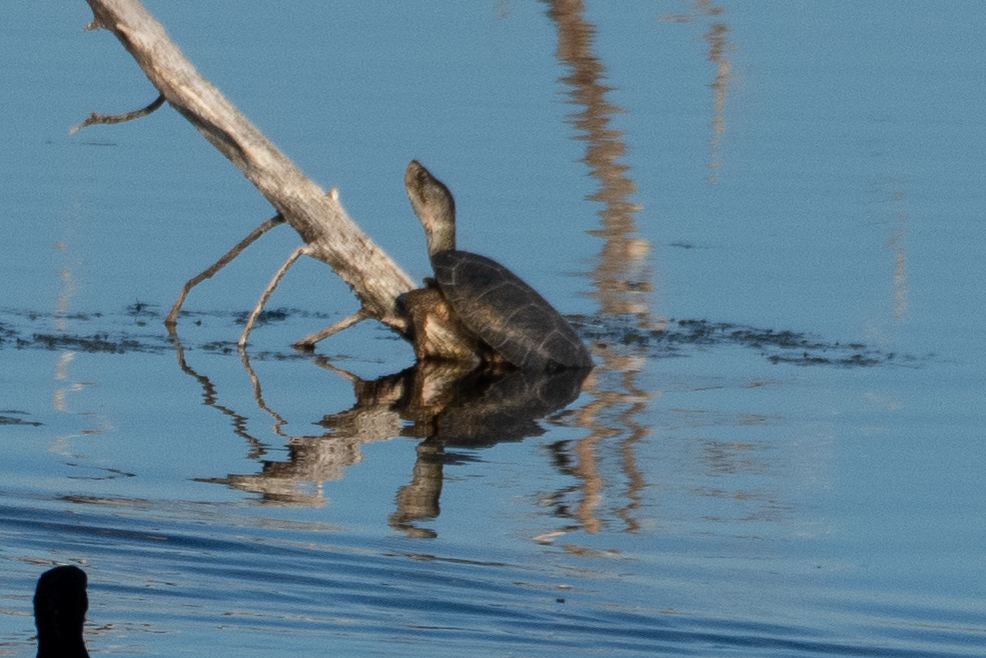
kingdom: Animalia
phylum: Chordata
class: Testudines
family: Emydidae
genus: Actinemys
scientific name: Actinemys marmorata
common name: Western pond turtle
